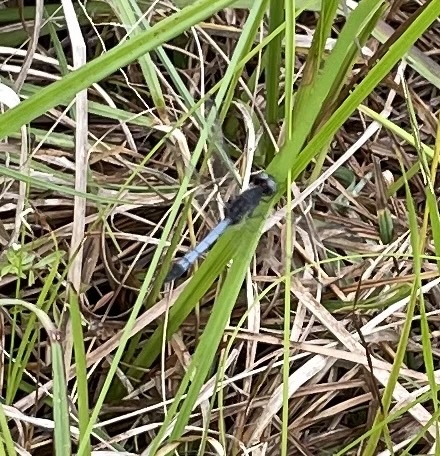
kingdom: Animalia
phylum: Arthropoda
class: Insecta
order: Odonata
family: Libellulidae
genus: Erythrodiplax
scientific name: Erythrodiplax minuscula
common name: Little blue dragonlet
